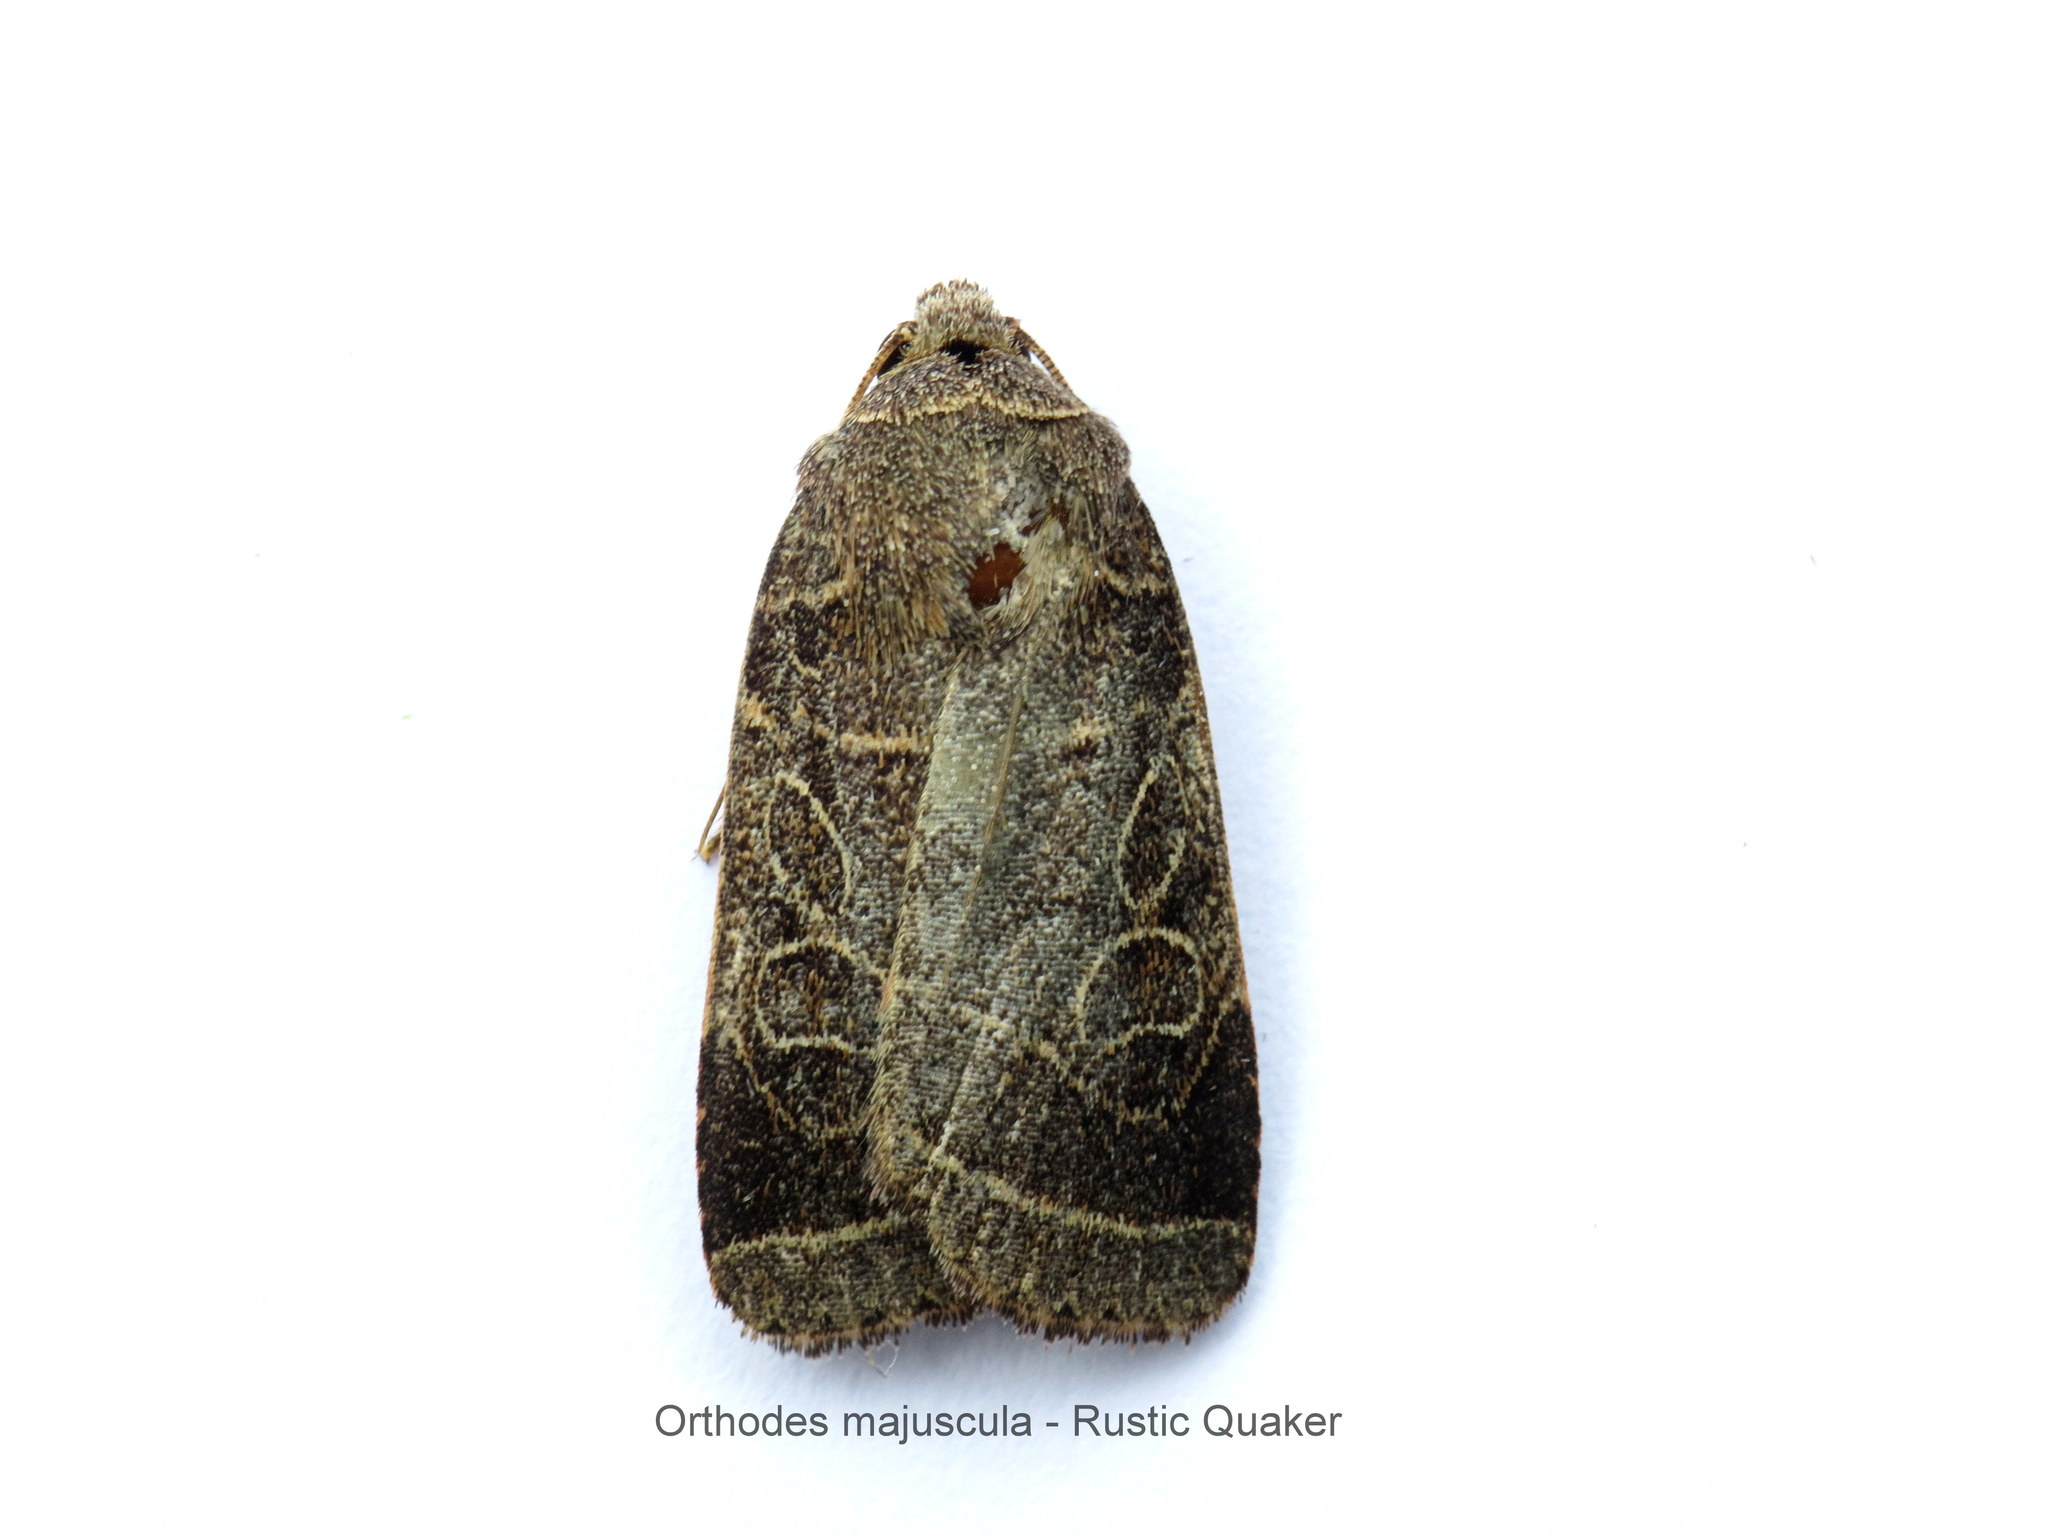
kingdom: Animalia
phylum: Arthropoda
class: Insecta
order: Lepidoptera
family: Noctuidae
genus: Orthodes
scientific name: Orthodes majuscula
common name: Rustic quaker
